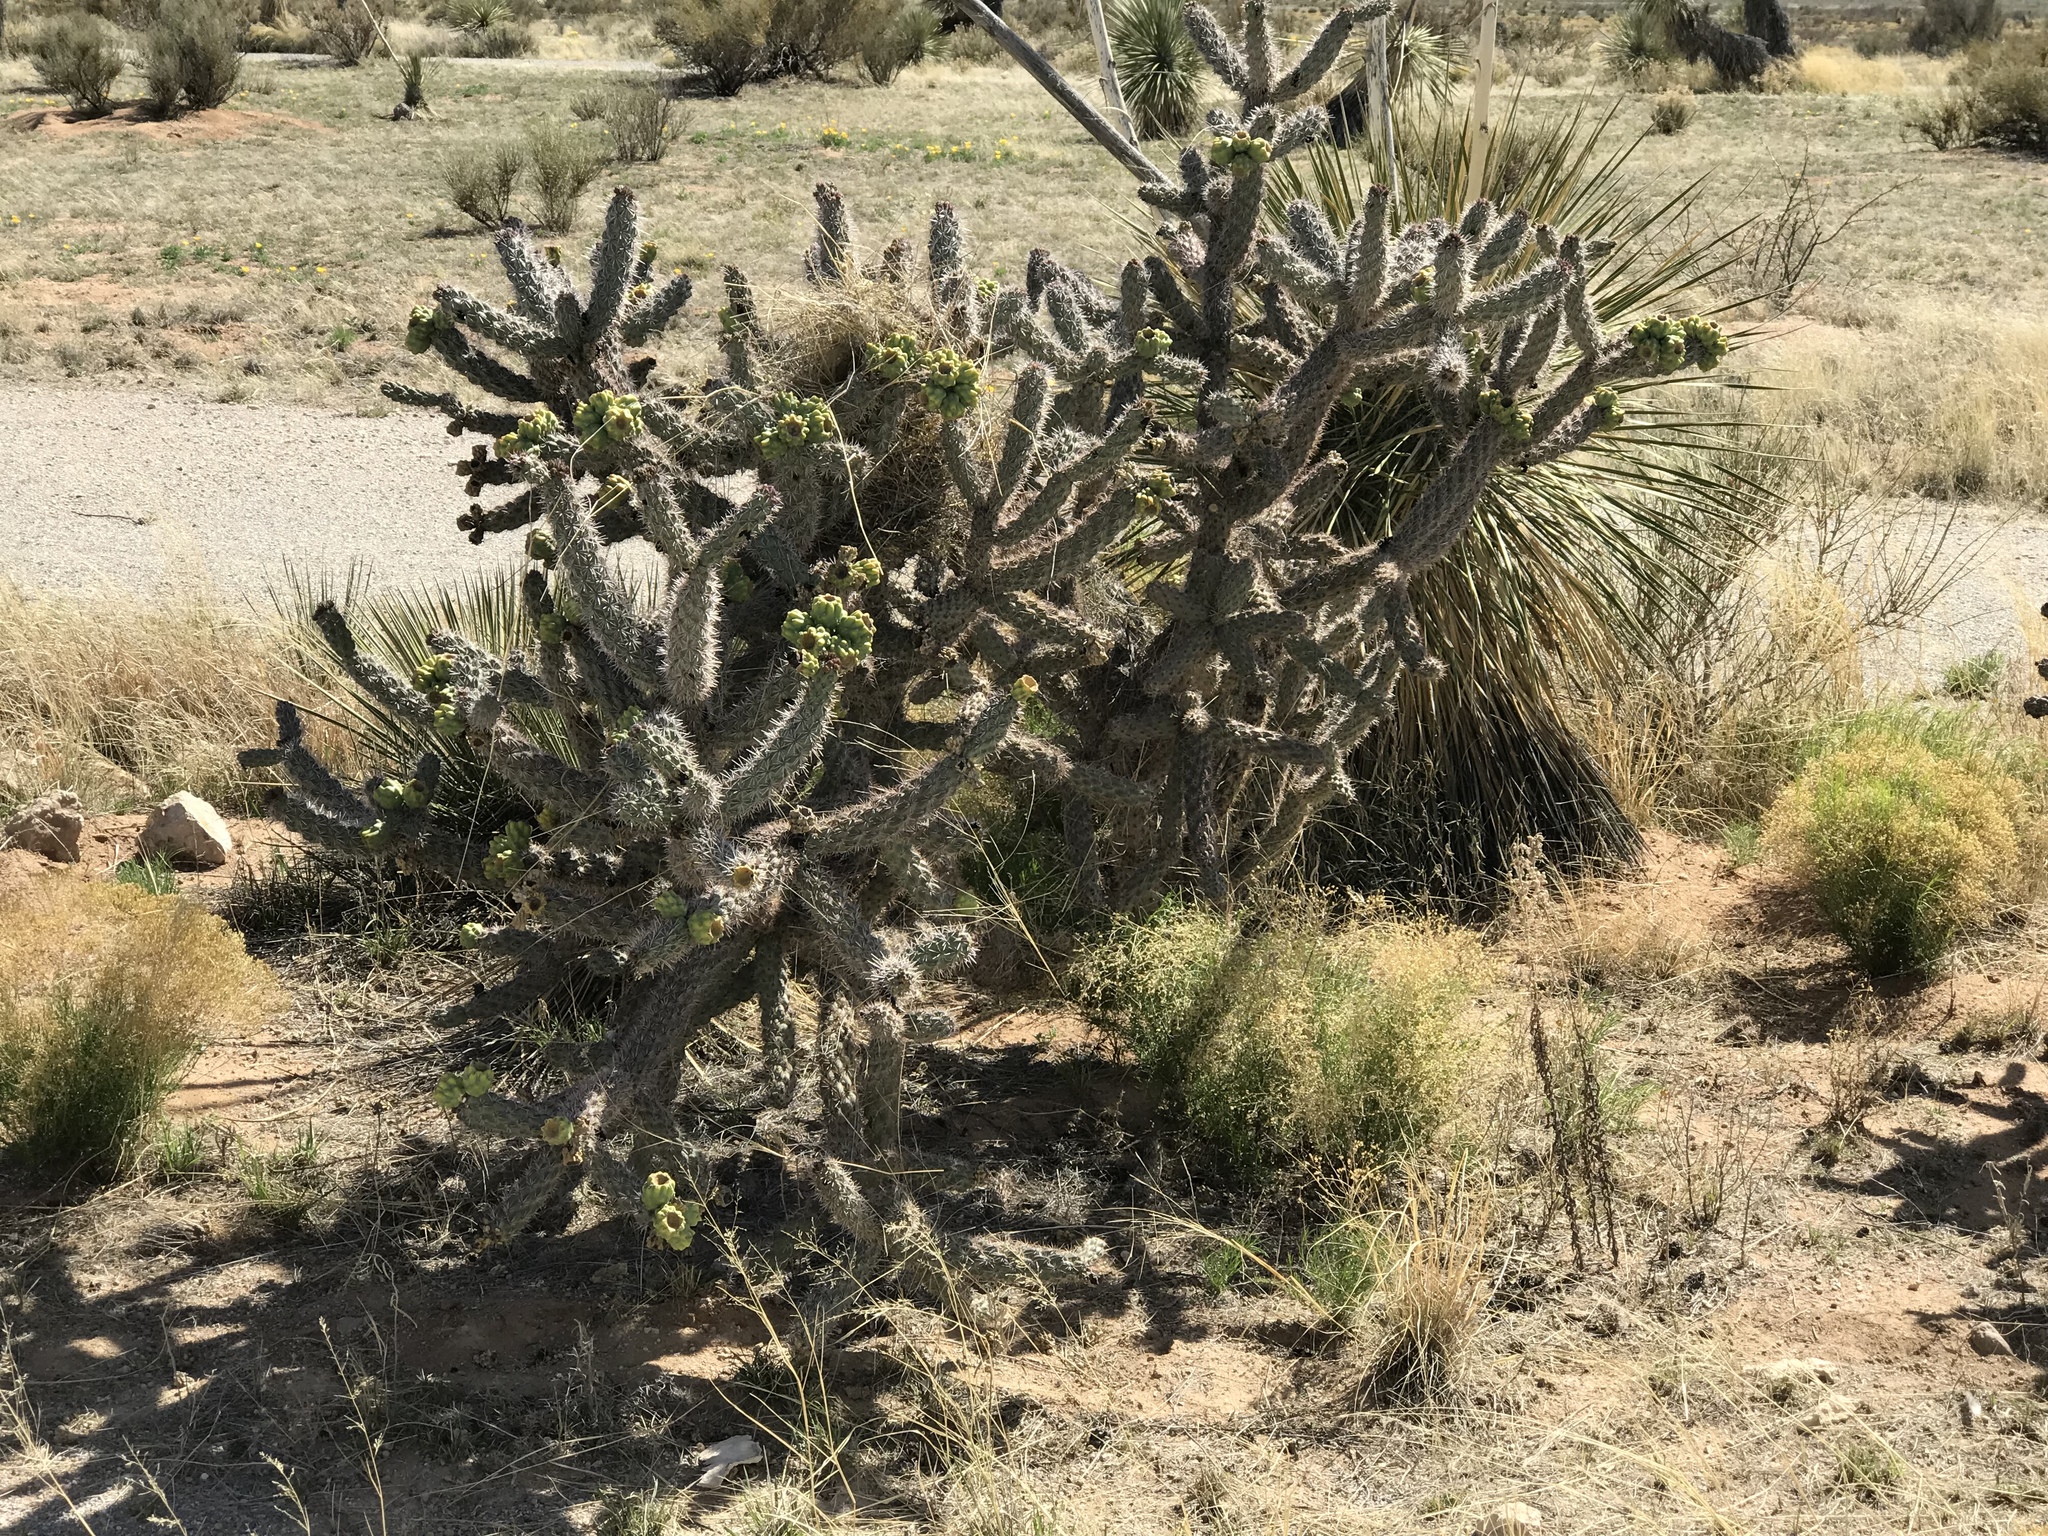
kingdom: Plantae
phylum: Tracheophyta
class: Magnoliopsida
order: Caryophyllales
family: Cactaceae
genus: Cylindropuntia
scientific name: Cylindropuntia imbricata
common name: Candelabrum cactus
